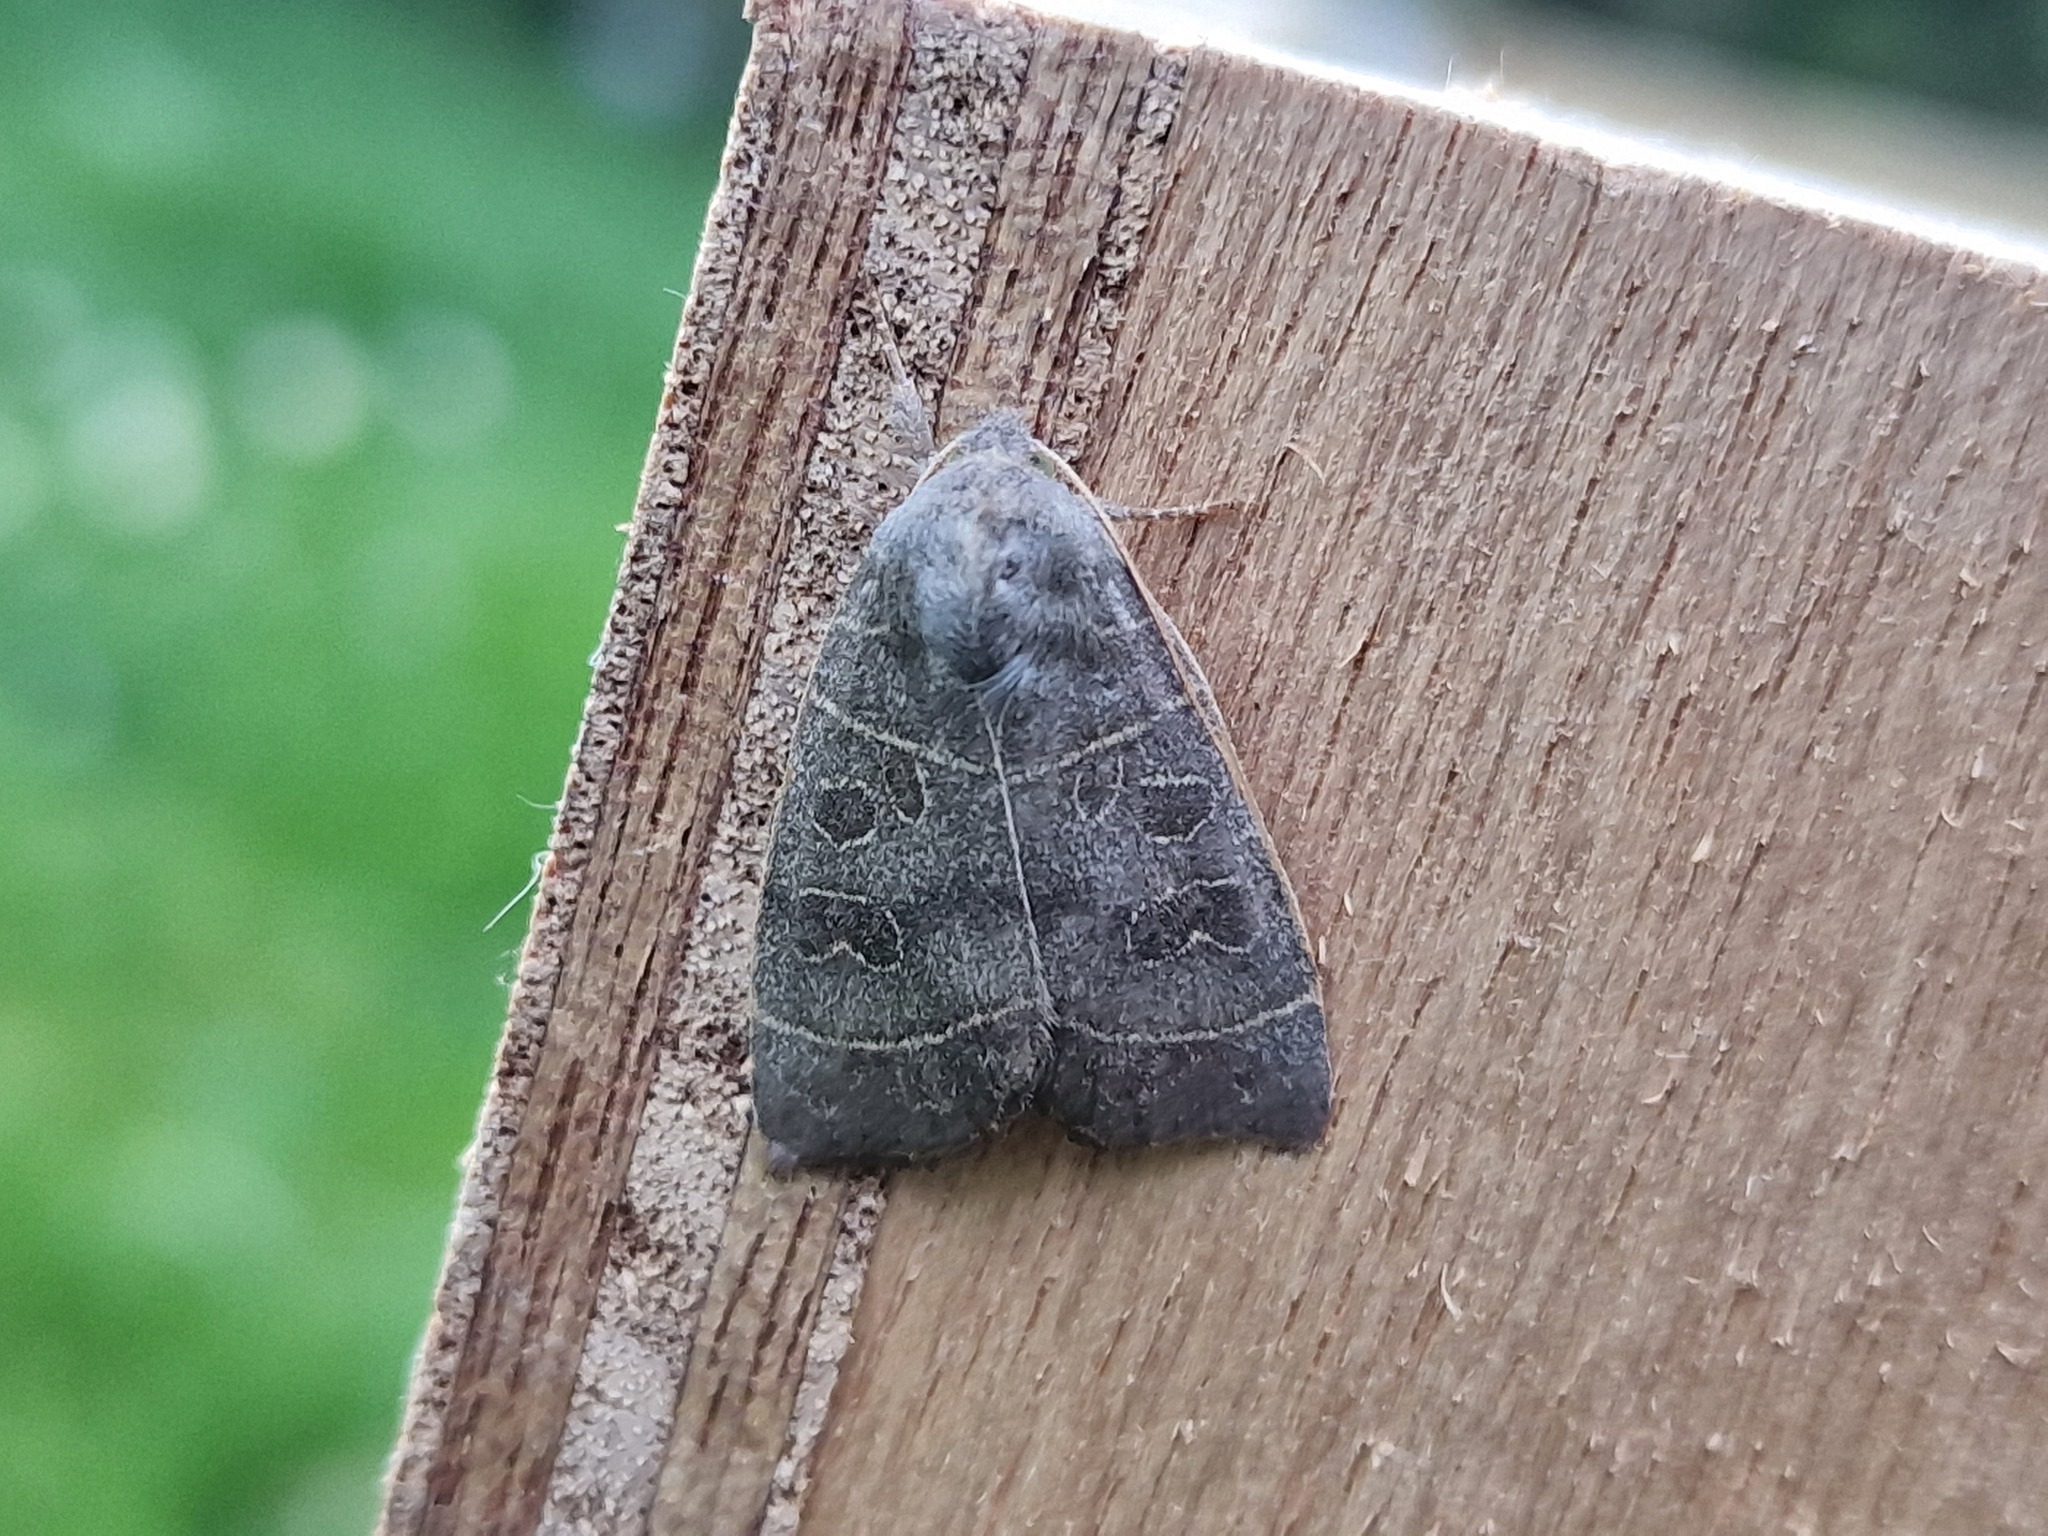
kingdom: Animalia
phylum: Arthropoda
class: Insecta
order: Lepidoptera
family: Noctuidae
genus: Ipimorpha
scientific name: Ipimorpha subtusa
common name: Olive
